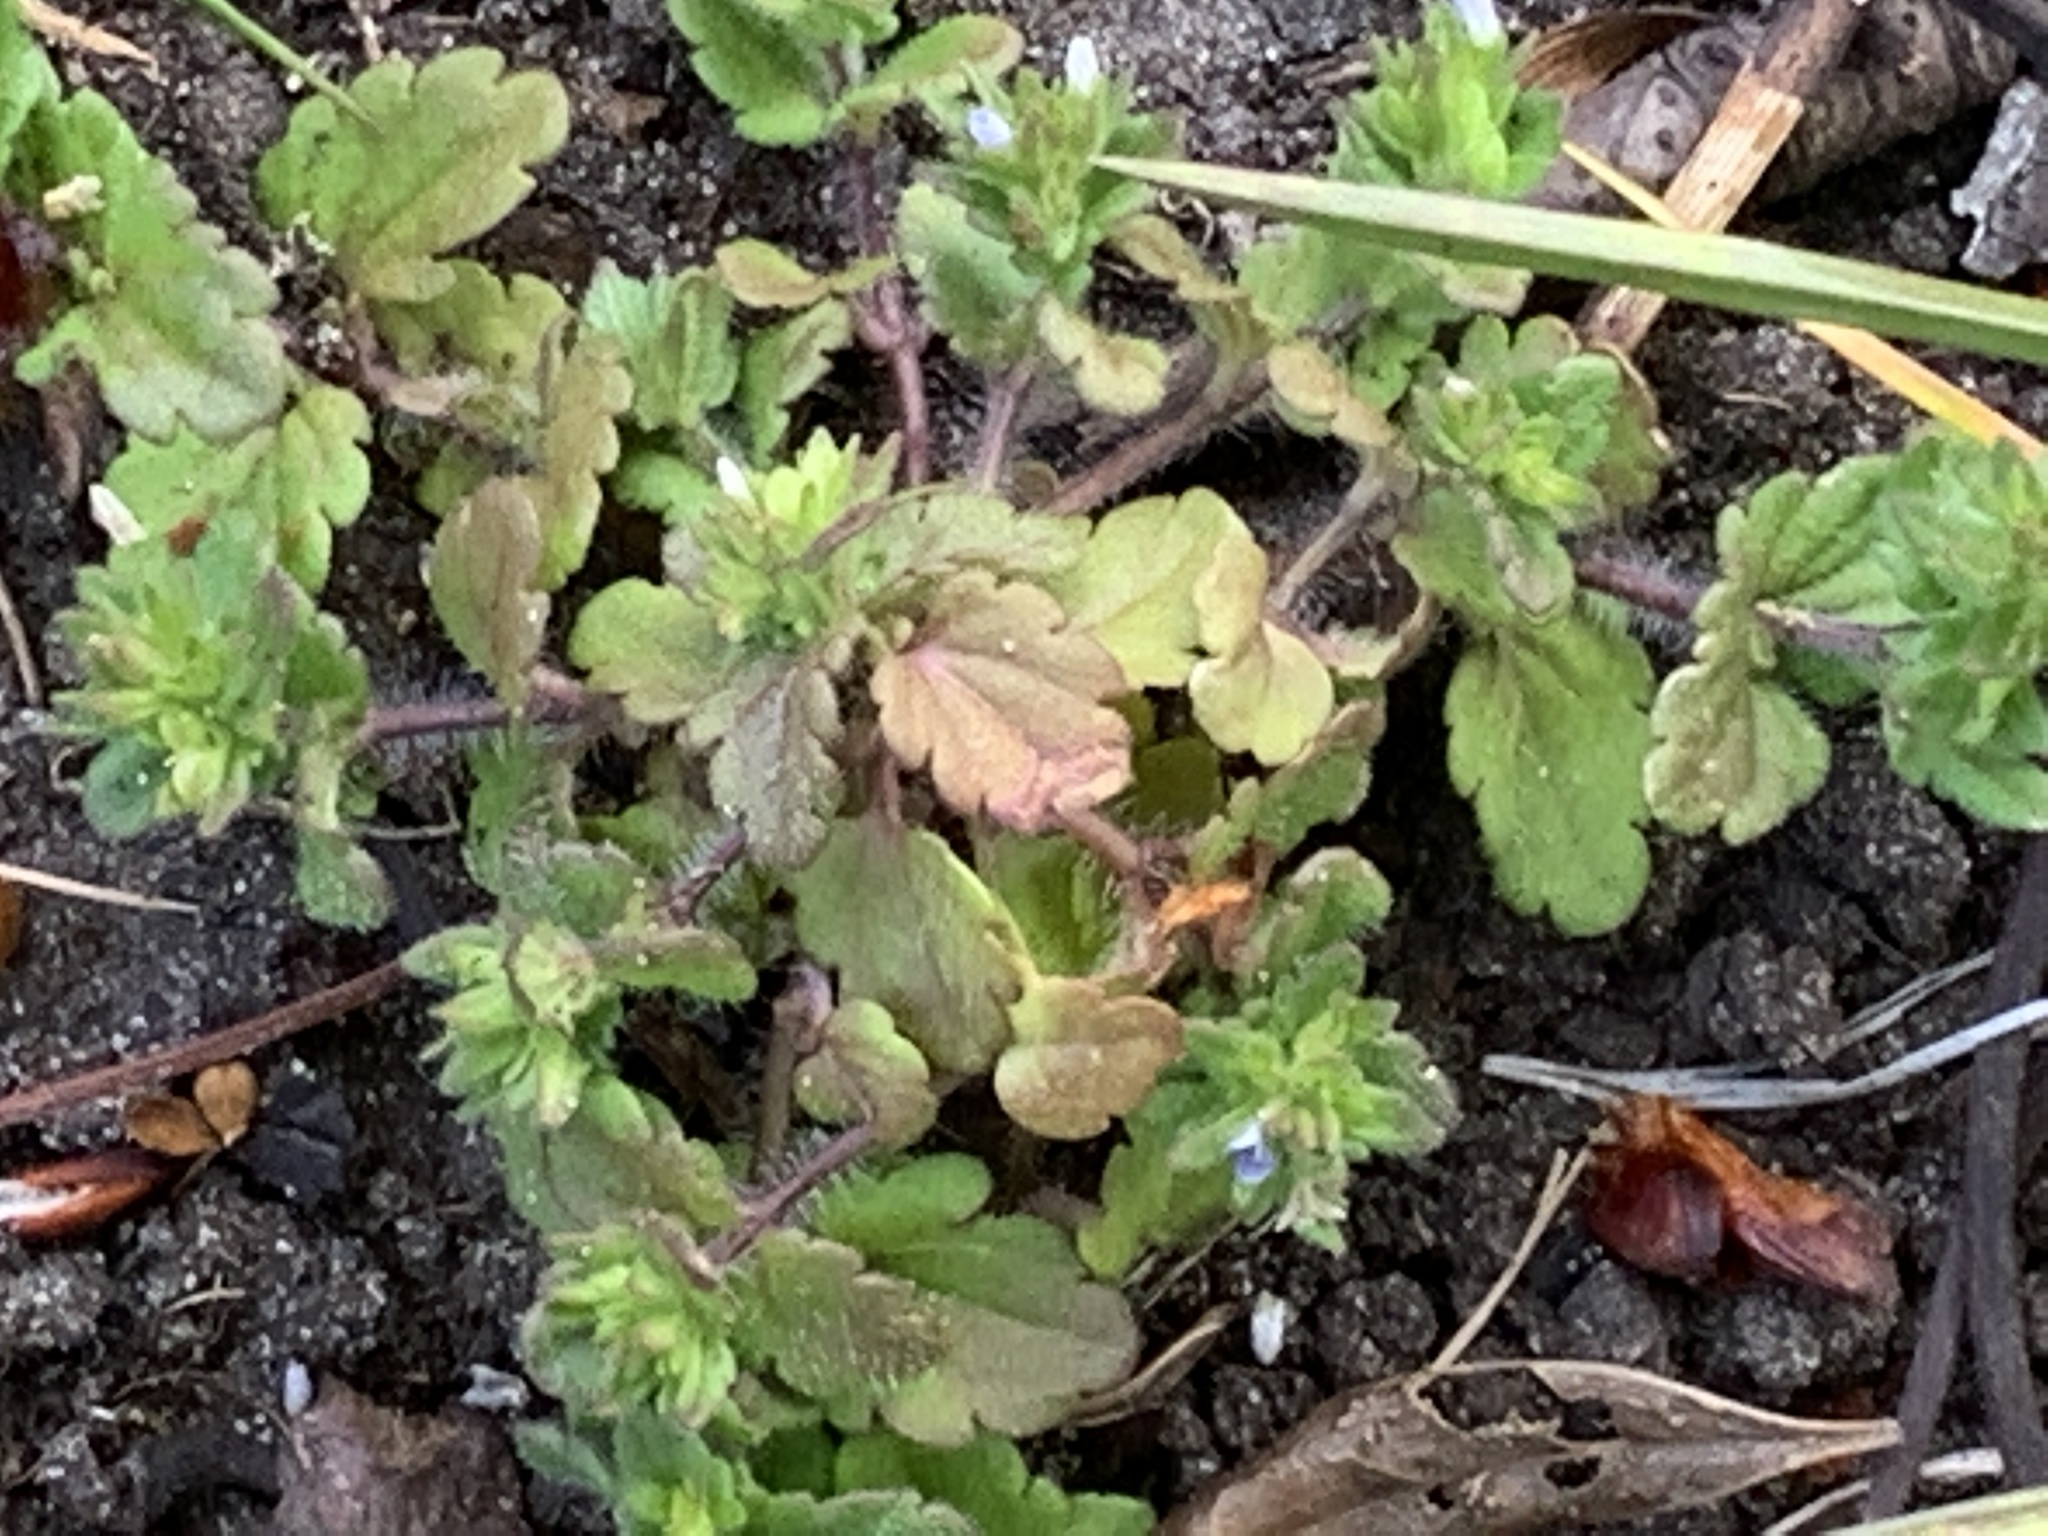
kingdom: Plantae
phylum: Tracheophyta
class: Magnoliopsida
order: Lamiales
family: Plantaginaceae
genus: Veronica
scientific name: Veronica arvensis
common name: Corn speedwell
